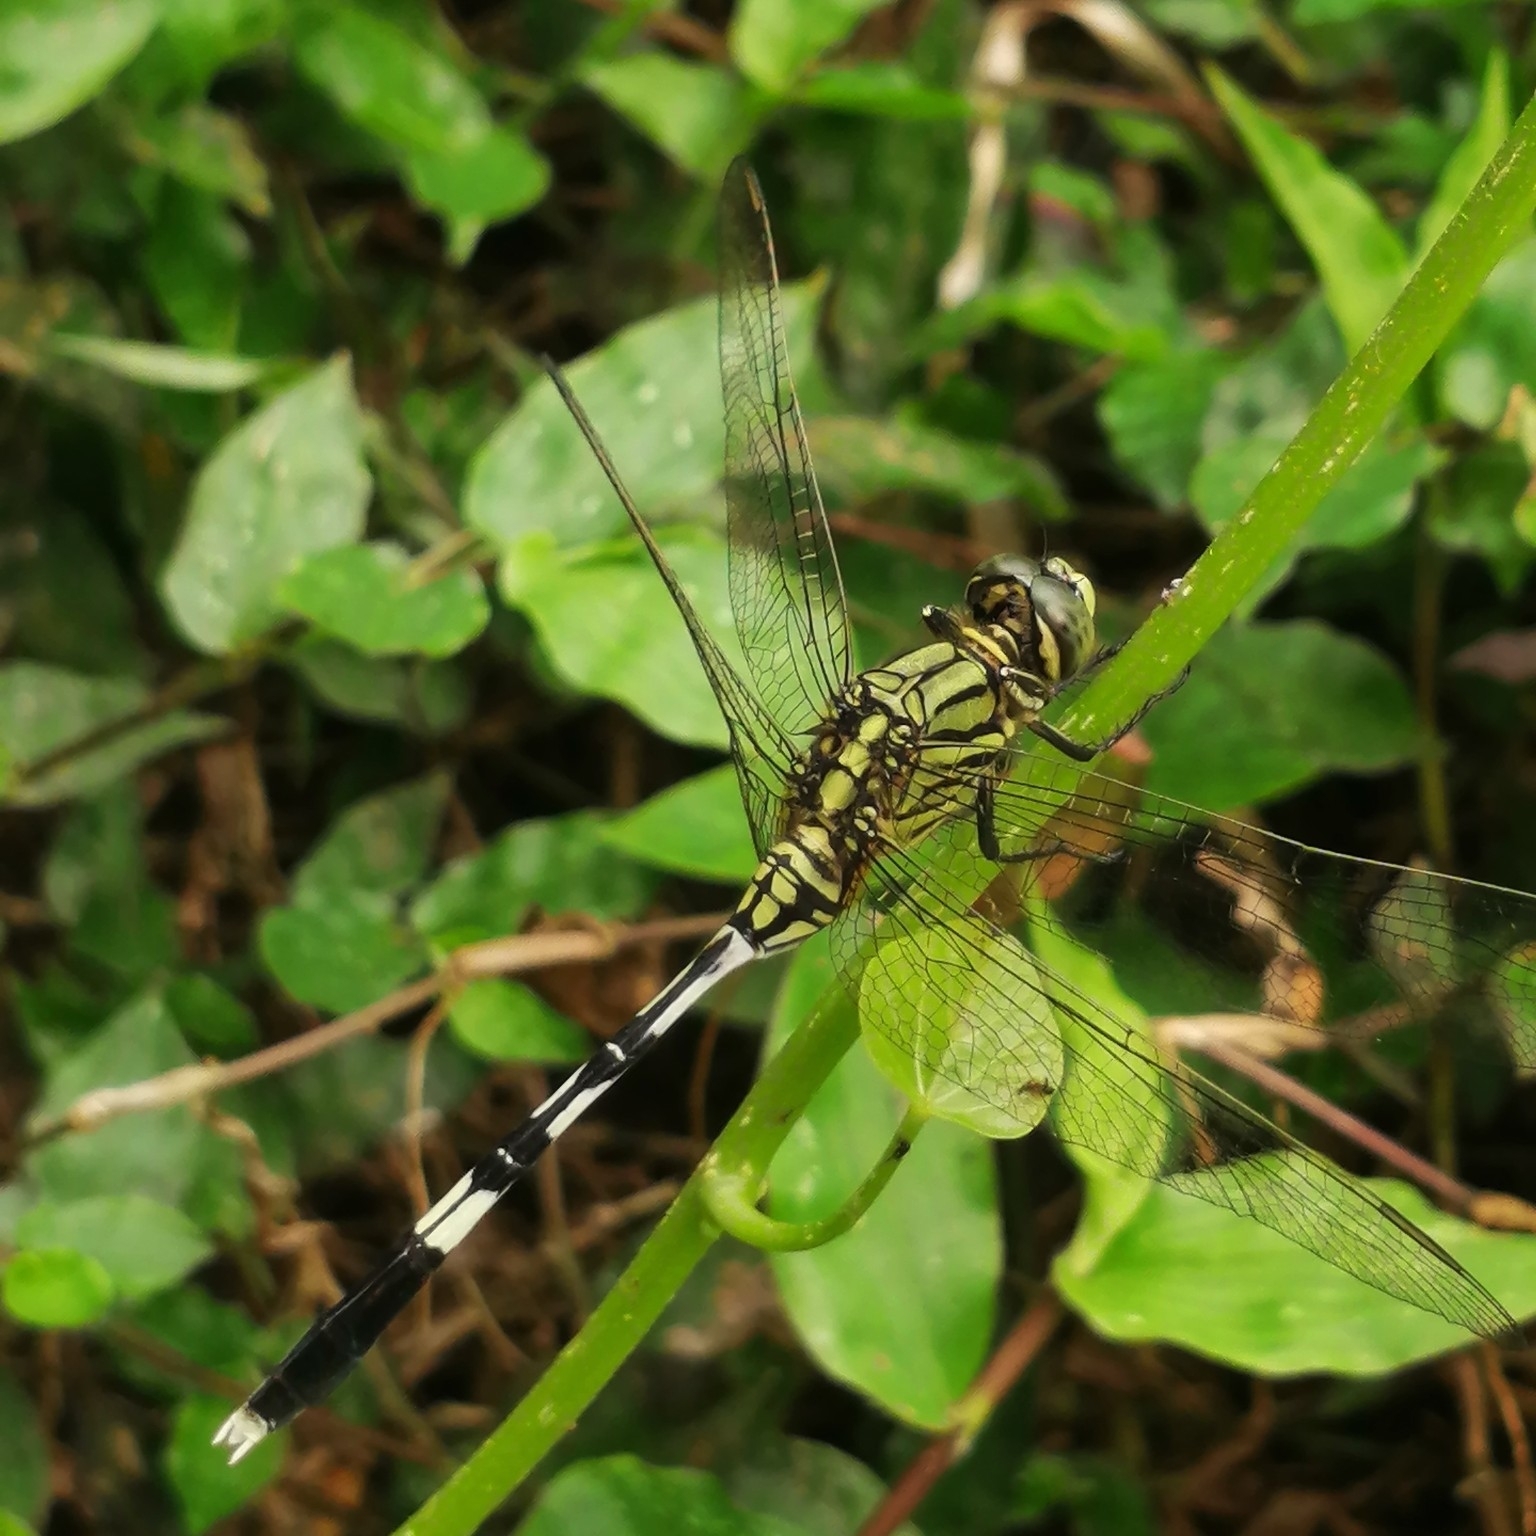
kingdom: Animalia
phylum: Arthropoda
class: Insecta
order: Odonata
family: Libellulidae
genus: Orthetrum
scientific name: Orthetrum sabina
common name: Slender skimmer
